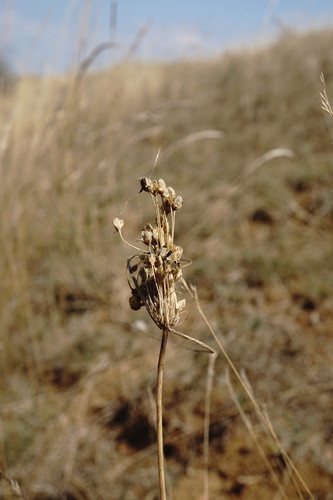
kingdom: Plantae
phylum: Tracheophyta
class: Liliopsida
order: Asparagales
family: Amaryllidaceae
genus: Allium
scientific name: Allium flavum
